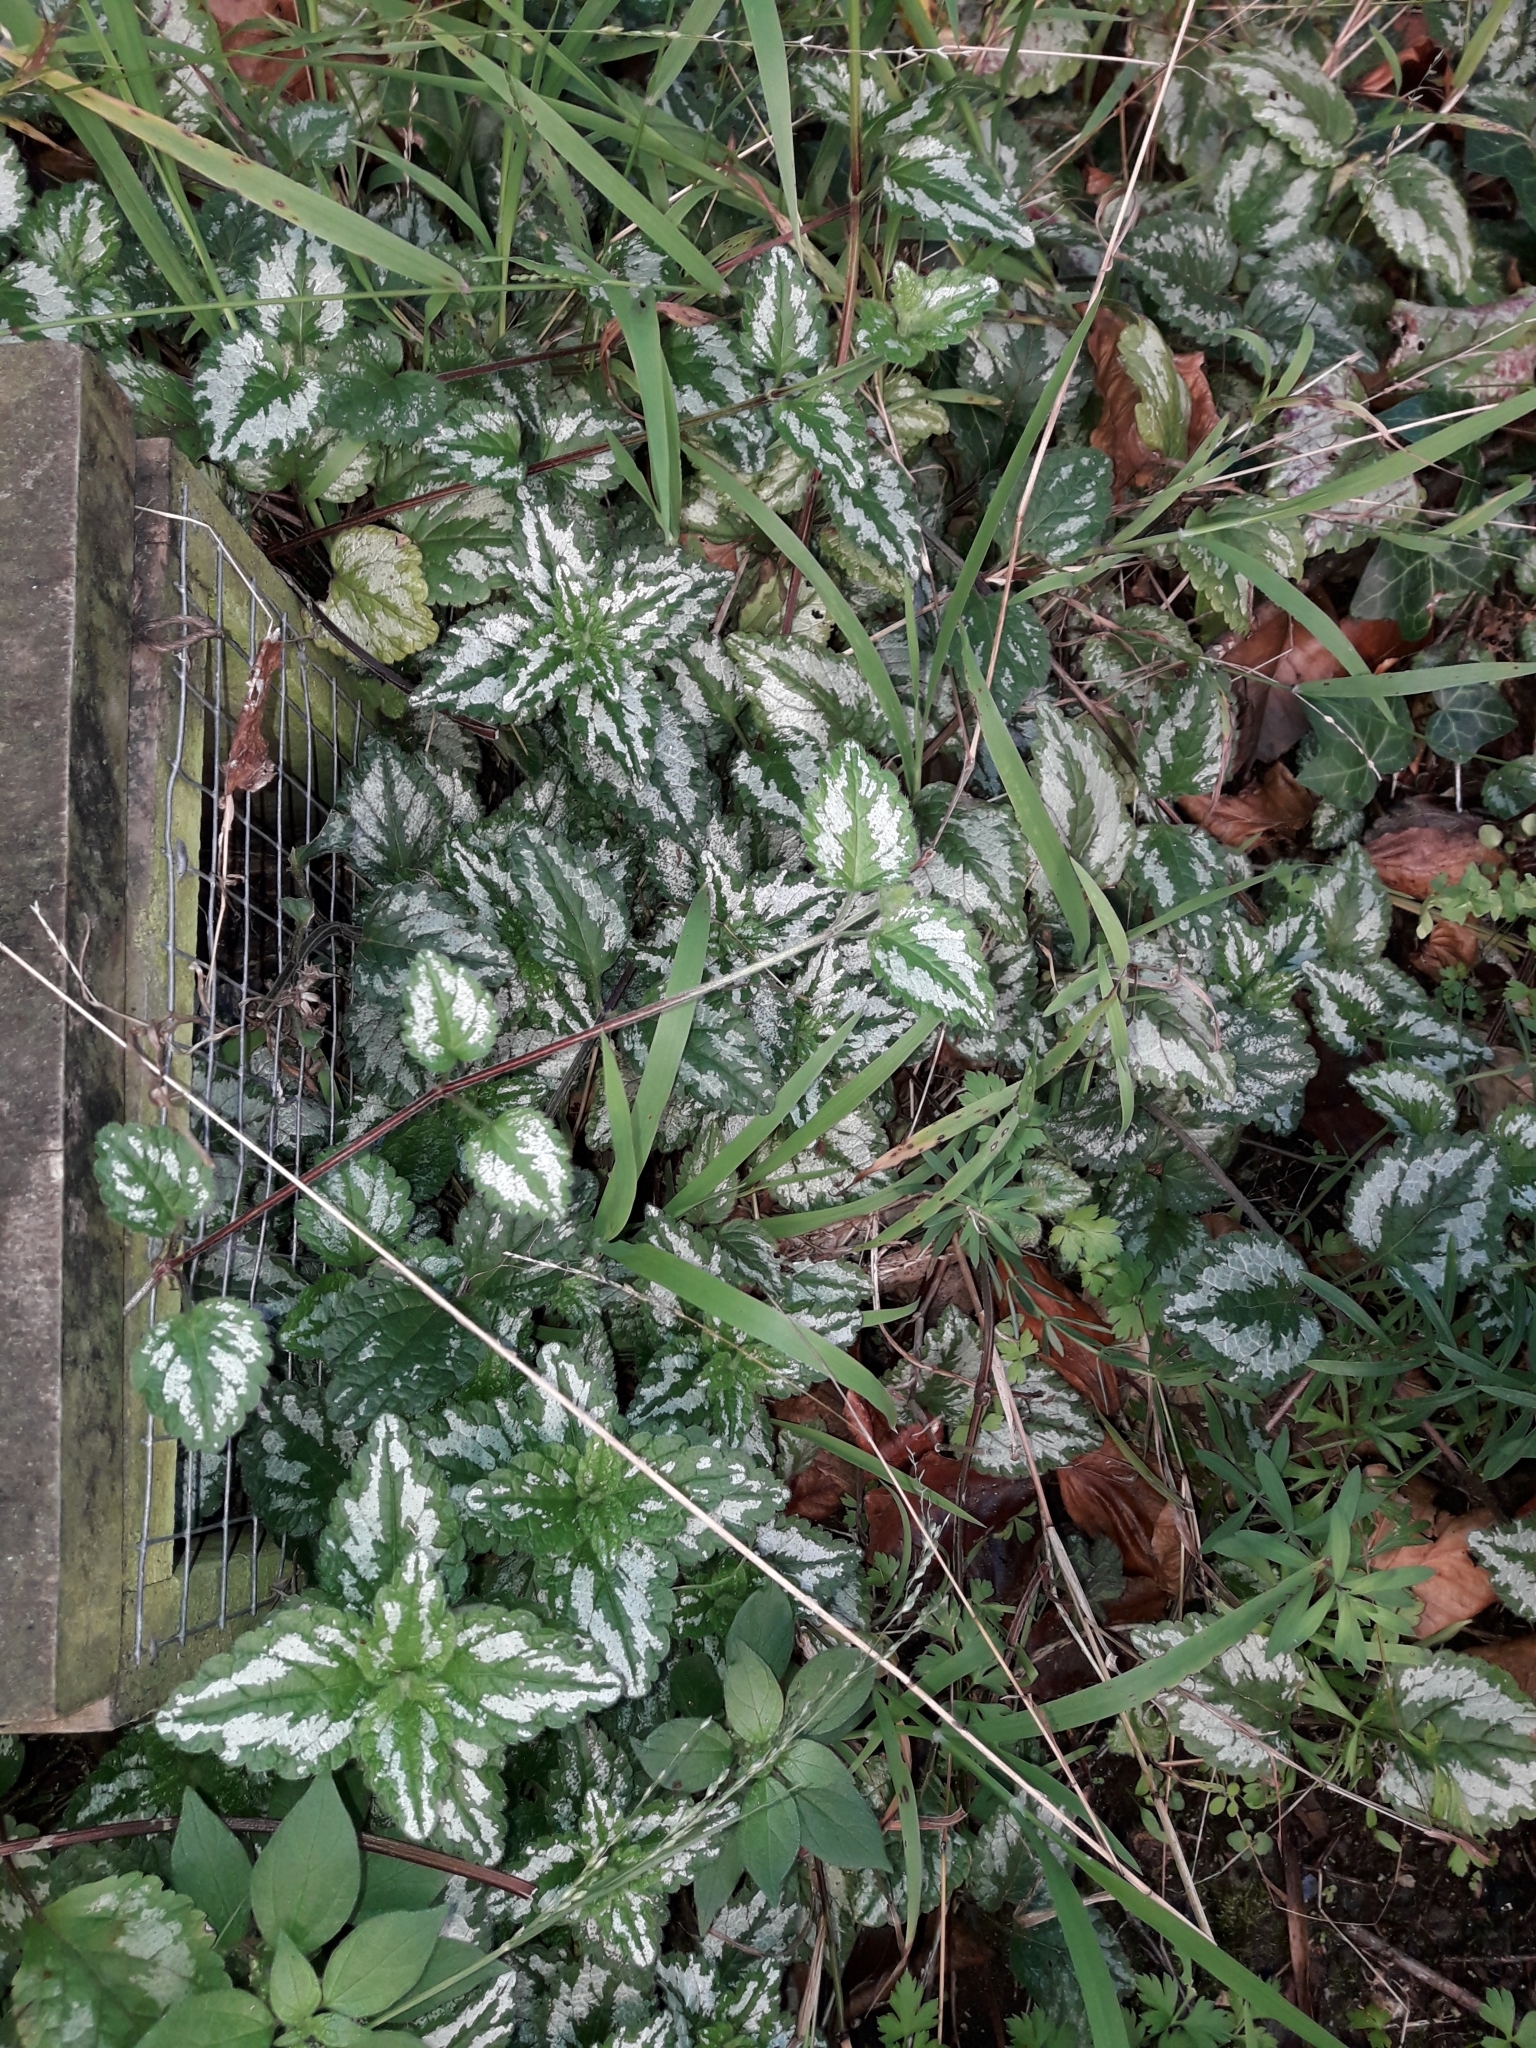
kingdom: Plantae
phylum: Tracheophyta
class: Magnoliopsida
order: Lamiales
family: Lamiaceae
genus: Lamium
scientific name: Lamium galeobdolon
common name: Yellow archangel
